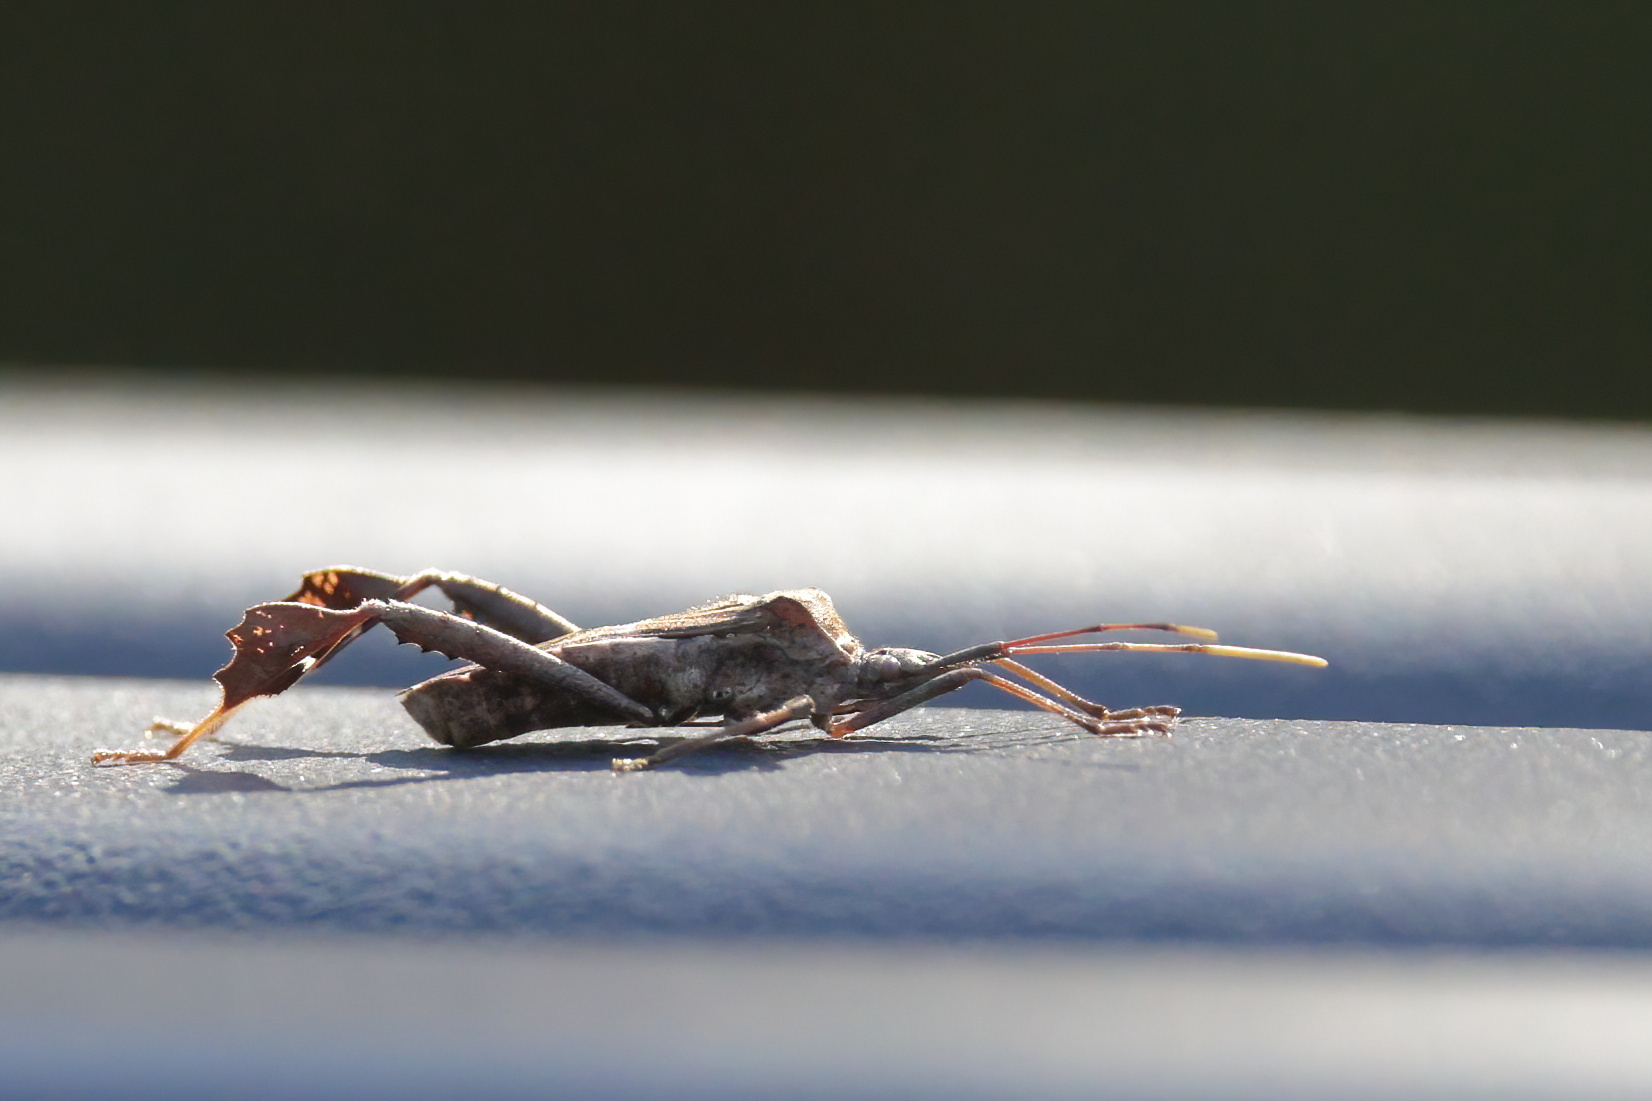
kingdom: Animalia
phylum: Arthropoda
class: Insecta
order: Hemiptera
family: Coreidae
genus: Leptoglossus
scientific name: Leptoglossus zonatus
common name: Large-legged bug
